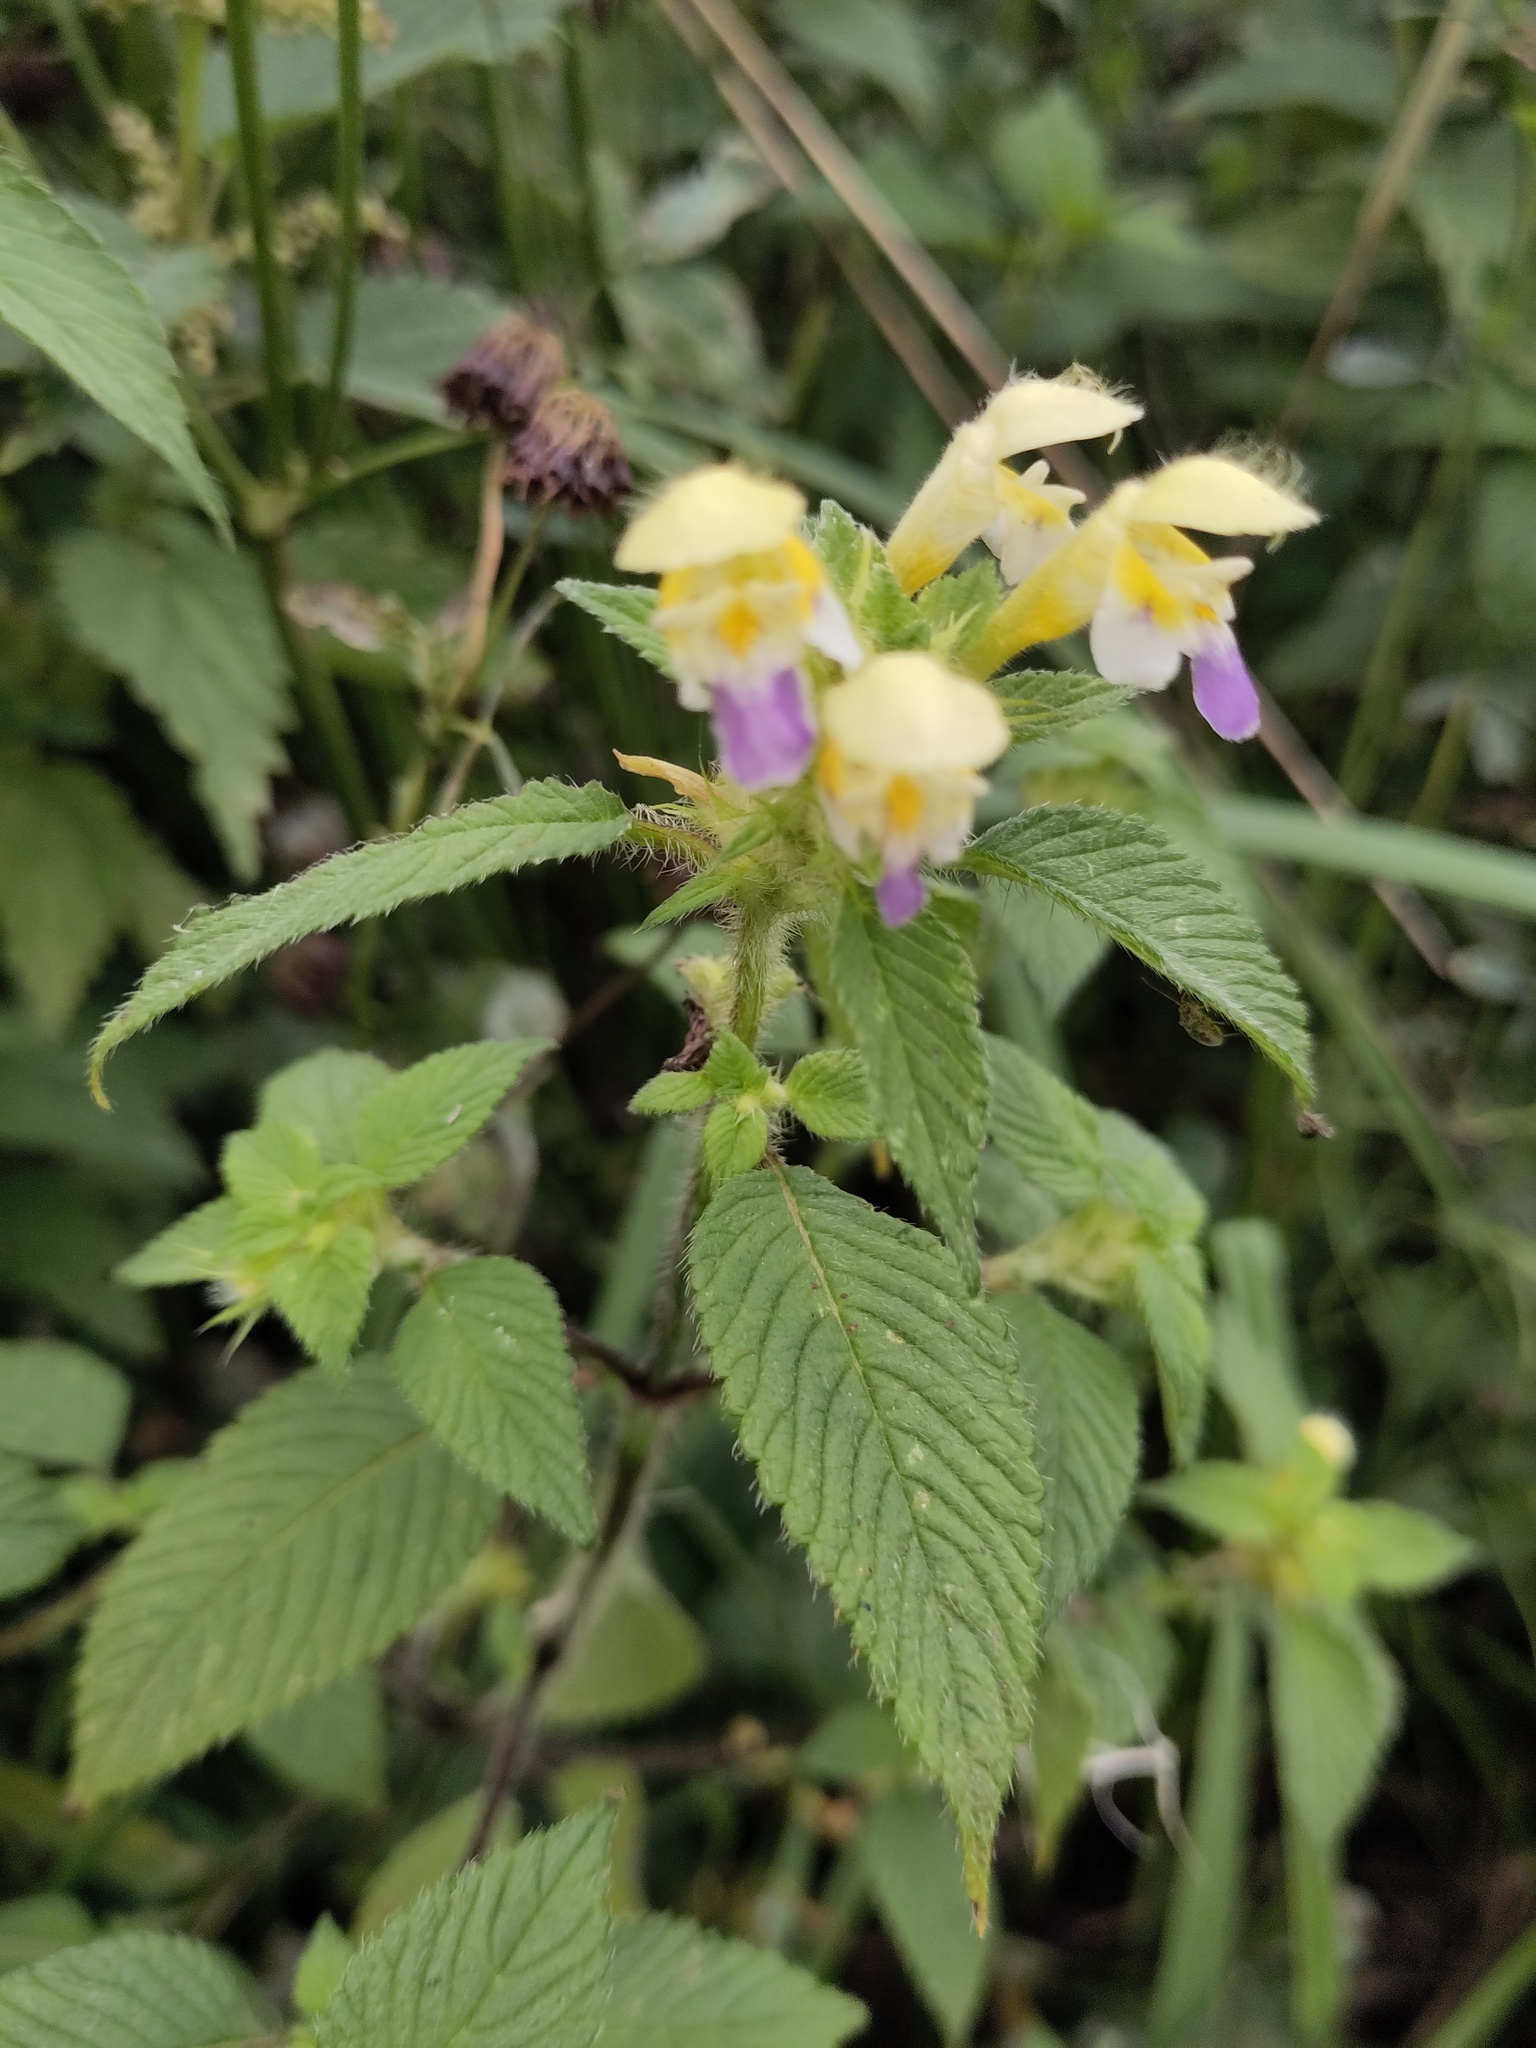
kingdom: Plantae
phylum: Tracheophyta
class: Magnoliopsida
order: Lamiales
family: Lamiaceae
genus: Galeopsis
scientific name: Galeopsis speciosa
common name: Large-flowered hemp-nettle
